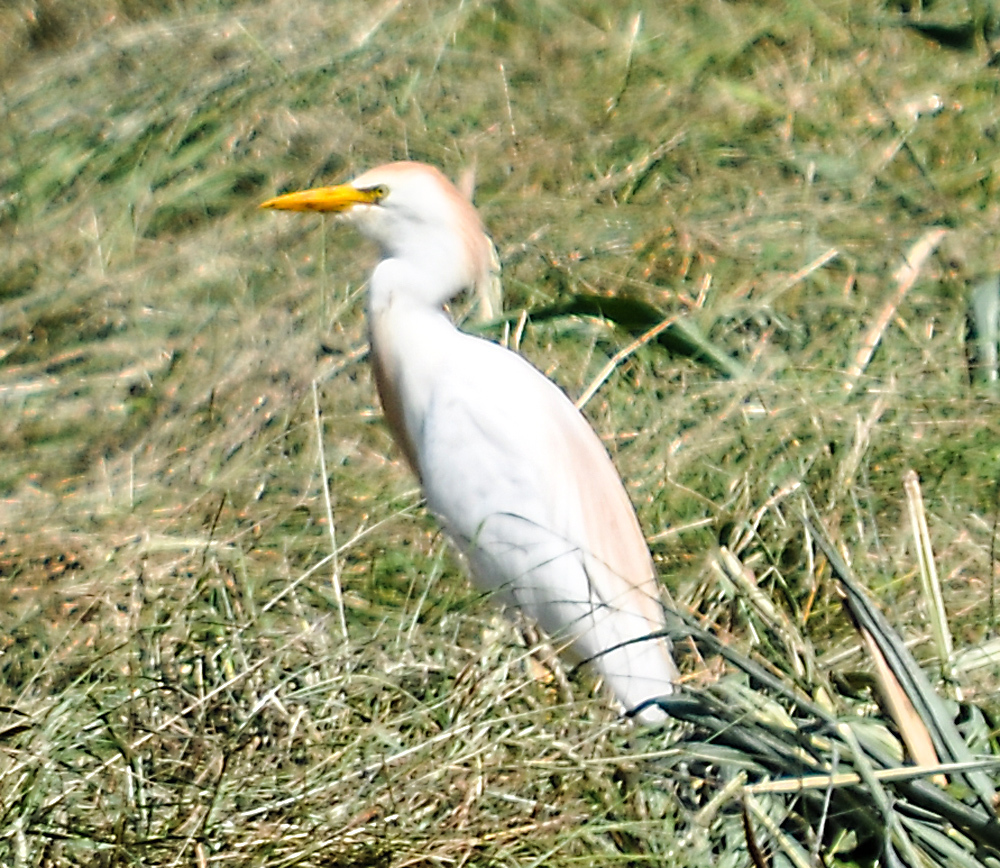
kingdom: Animalia
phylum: Chordata
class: Aves
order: Pelecaniformes
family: Ardeidae
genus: Bubulcus
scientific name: Bubulcus ibis
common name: Cattle egret
